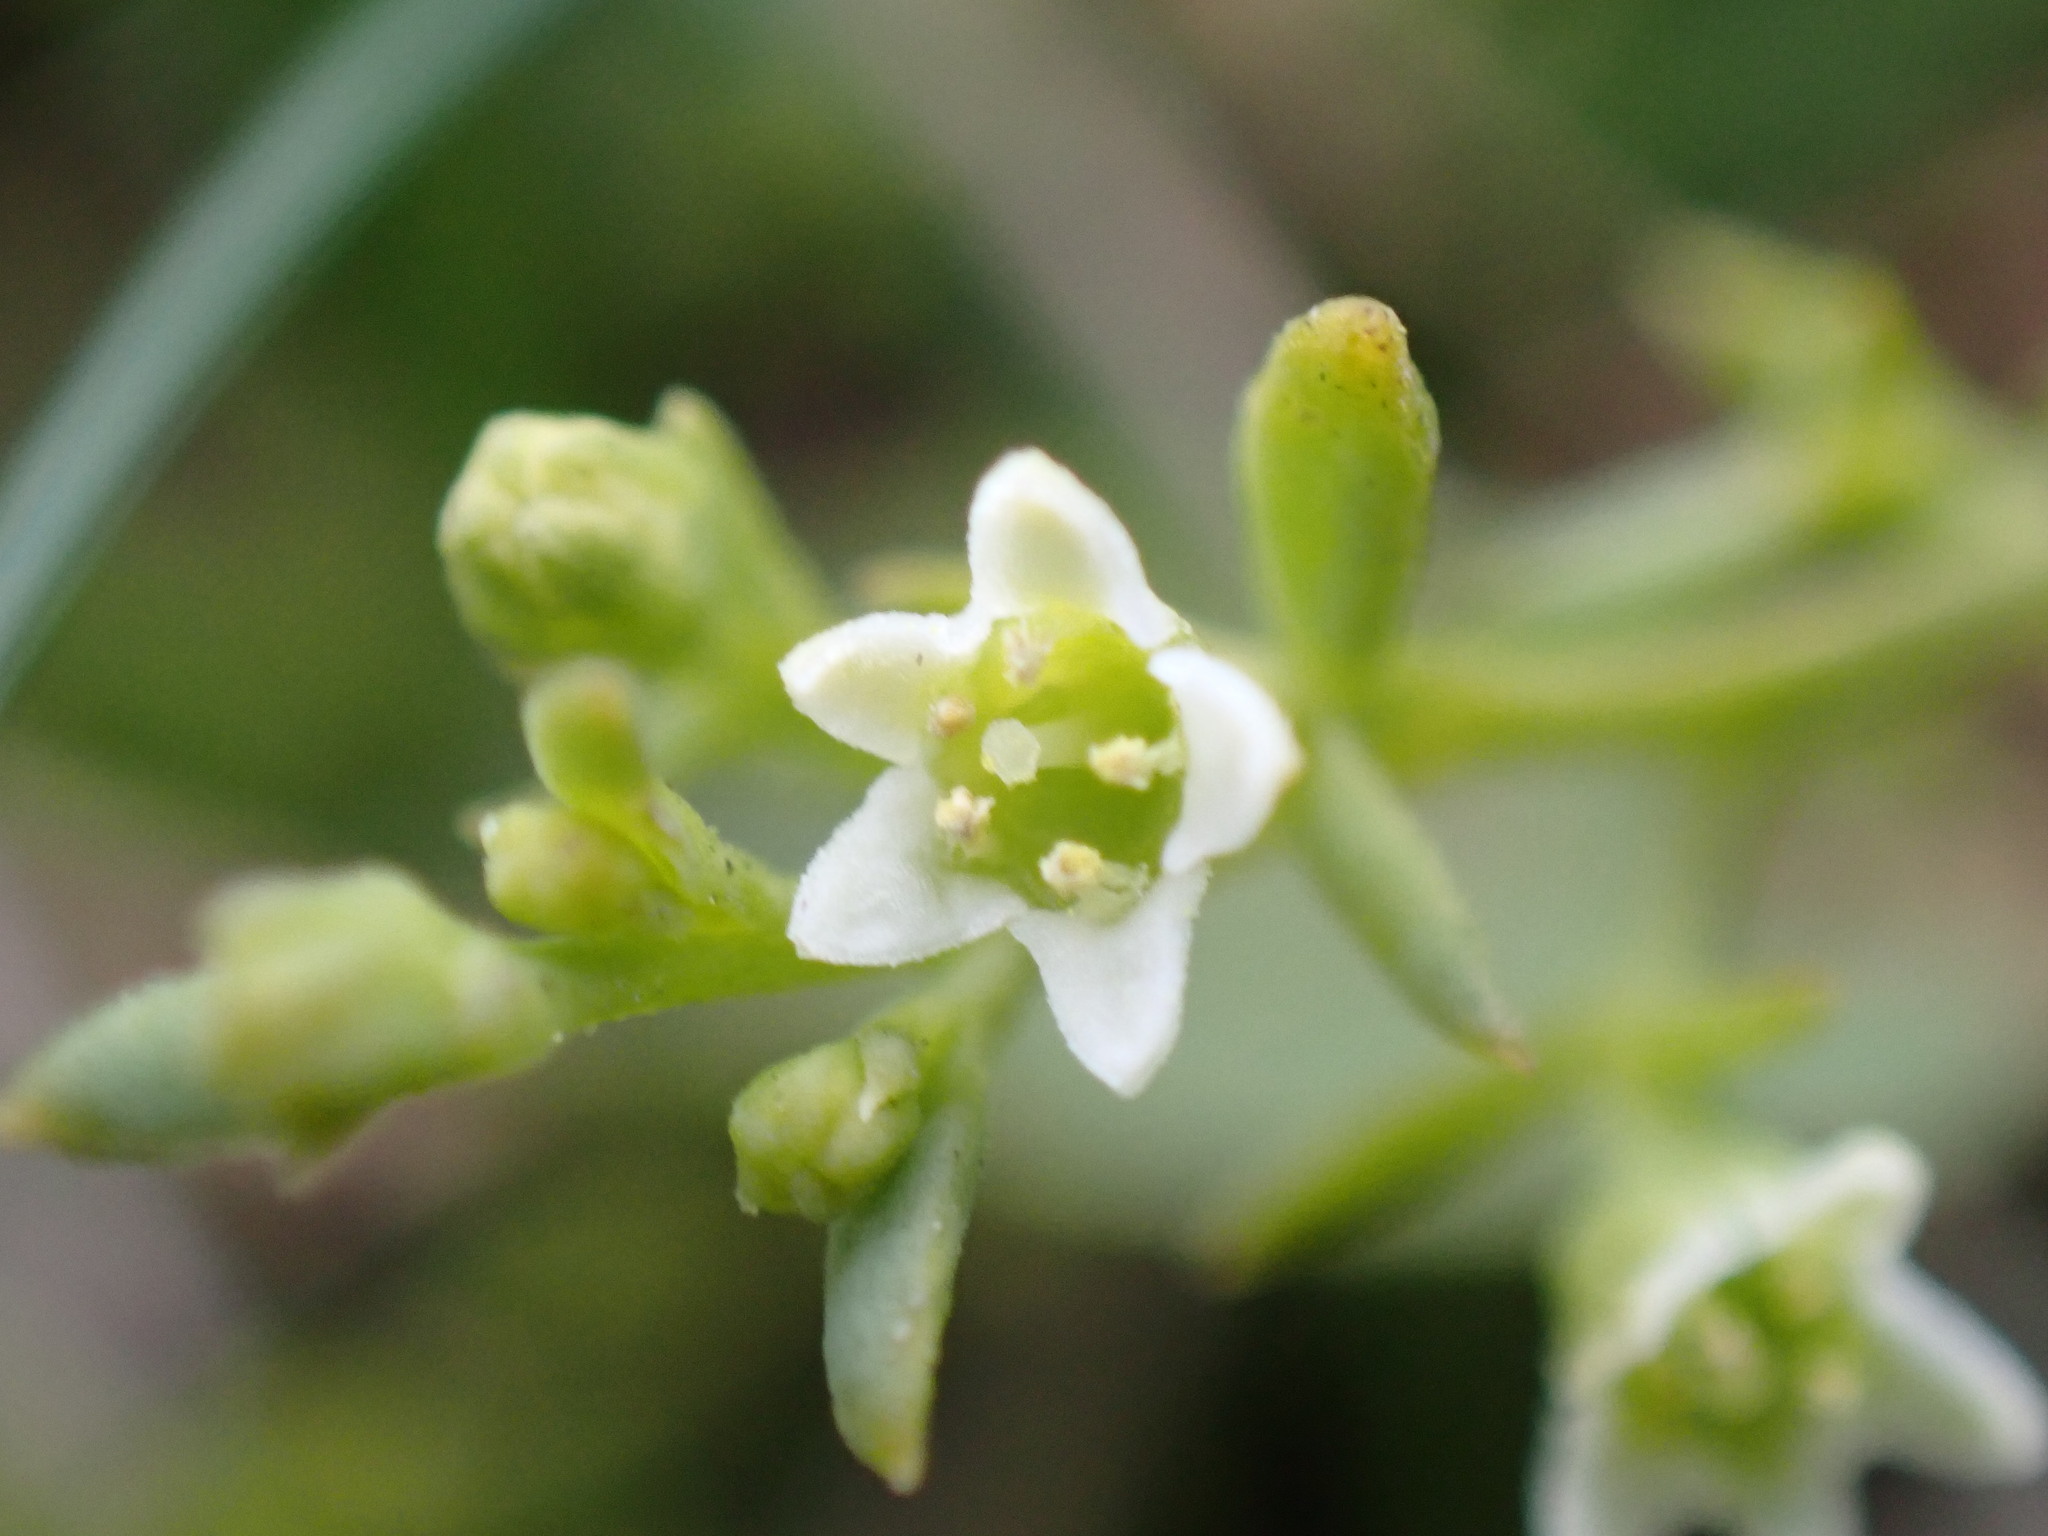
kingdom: Plantae
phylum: Tracheophyta
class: Magnoliopsida
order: Santalales
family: Thesiaceae
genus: Thesium
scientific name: Thesium humifusum
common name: Bastard-toadflax
